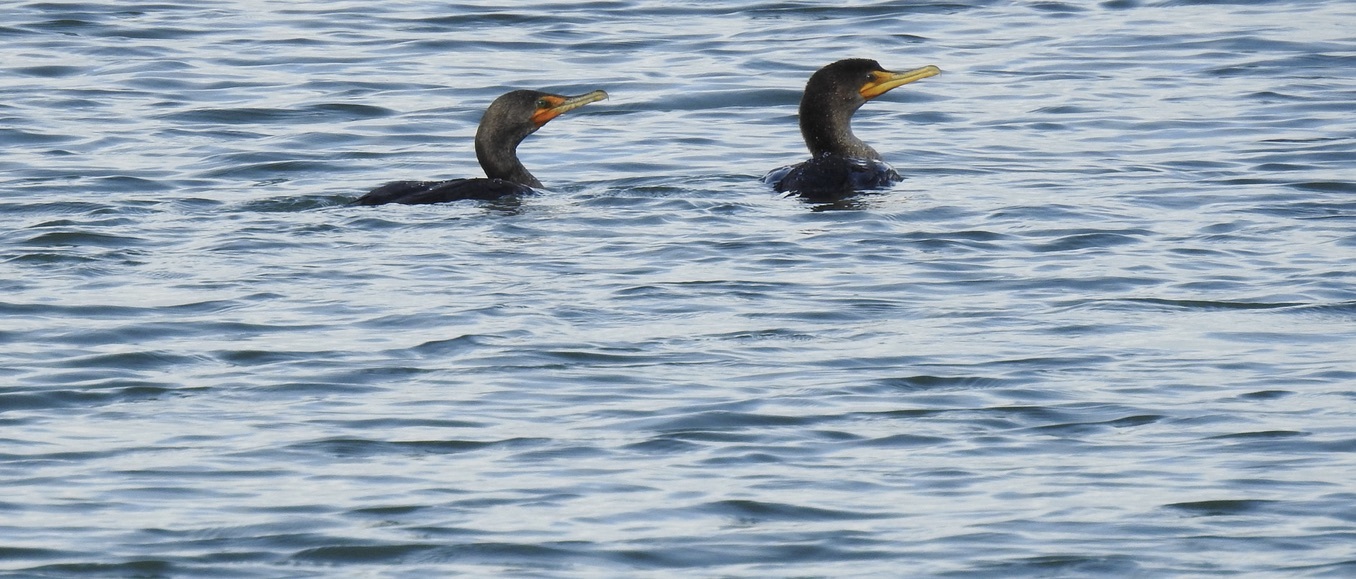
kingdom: Animalia
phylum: Chordata
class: Aves
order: Suliformes
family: Phalacrocoracidae
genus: Phalacrocorax
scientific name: Phalacrocorax auritus
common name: Double-crested cormorant
